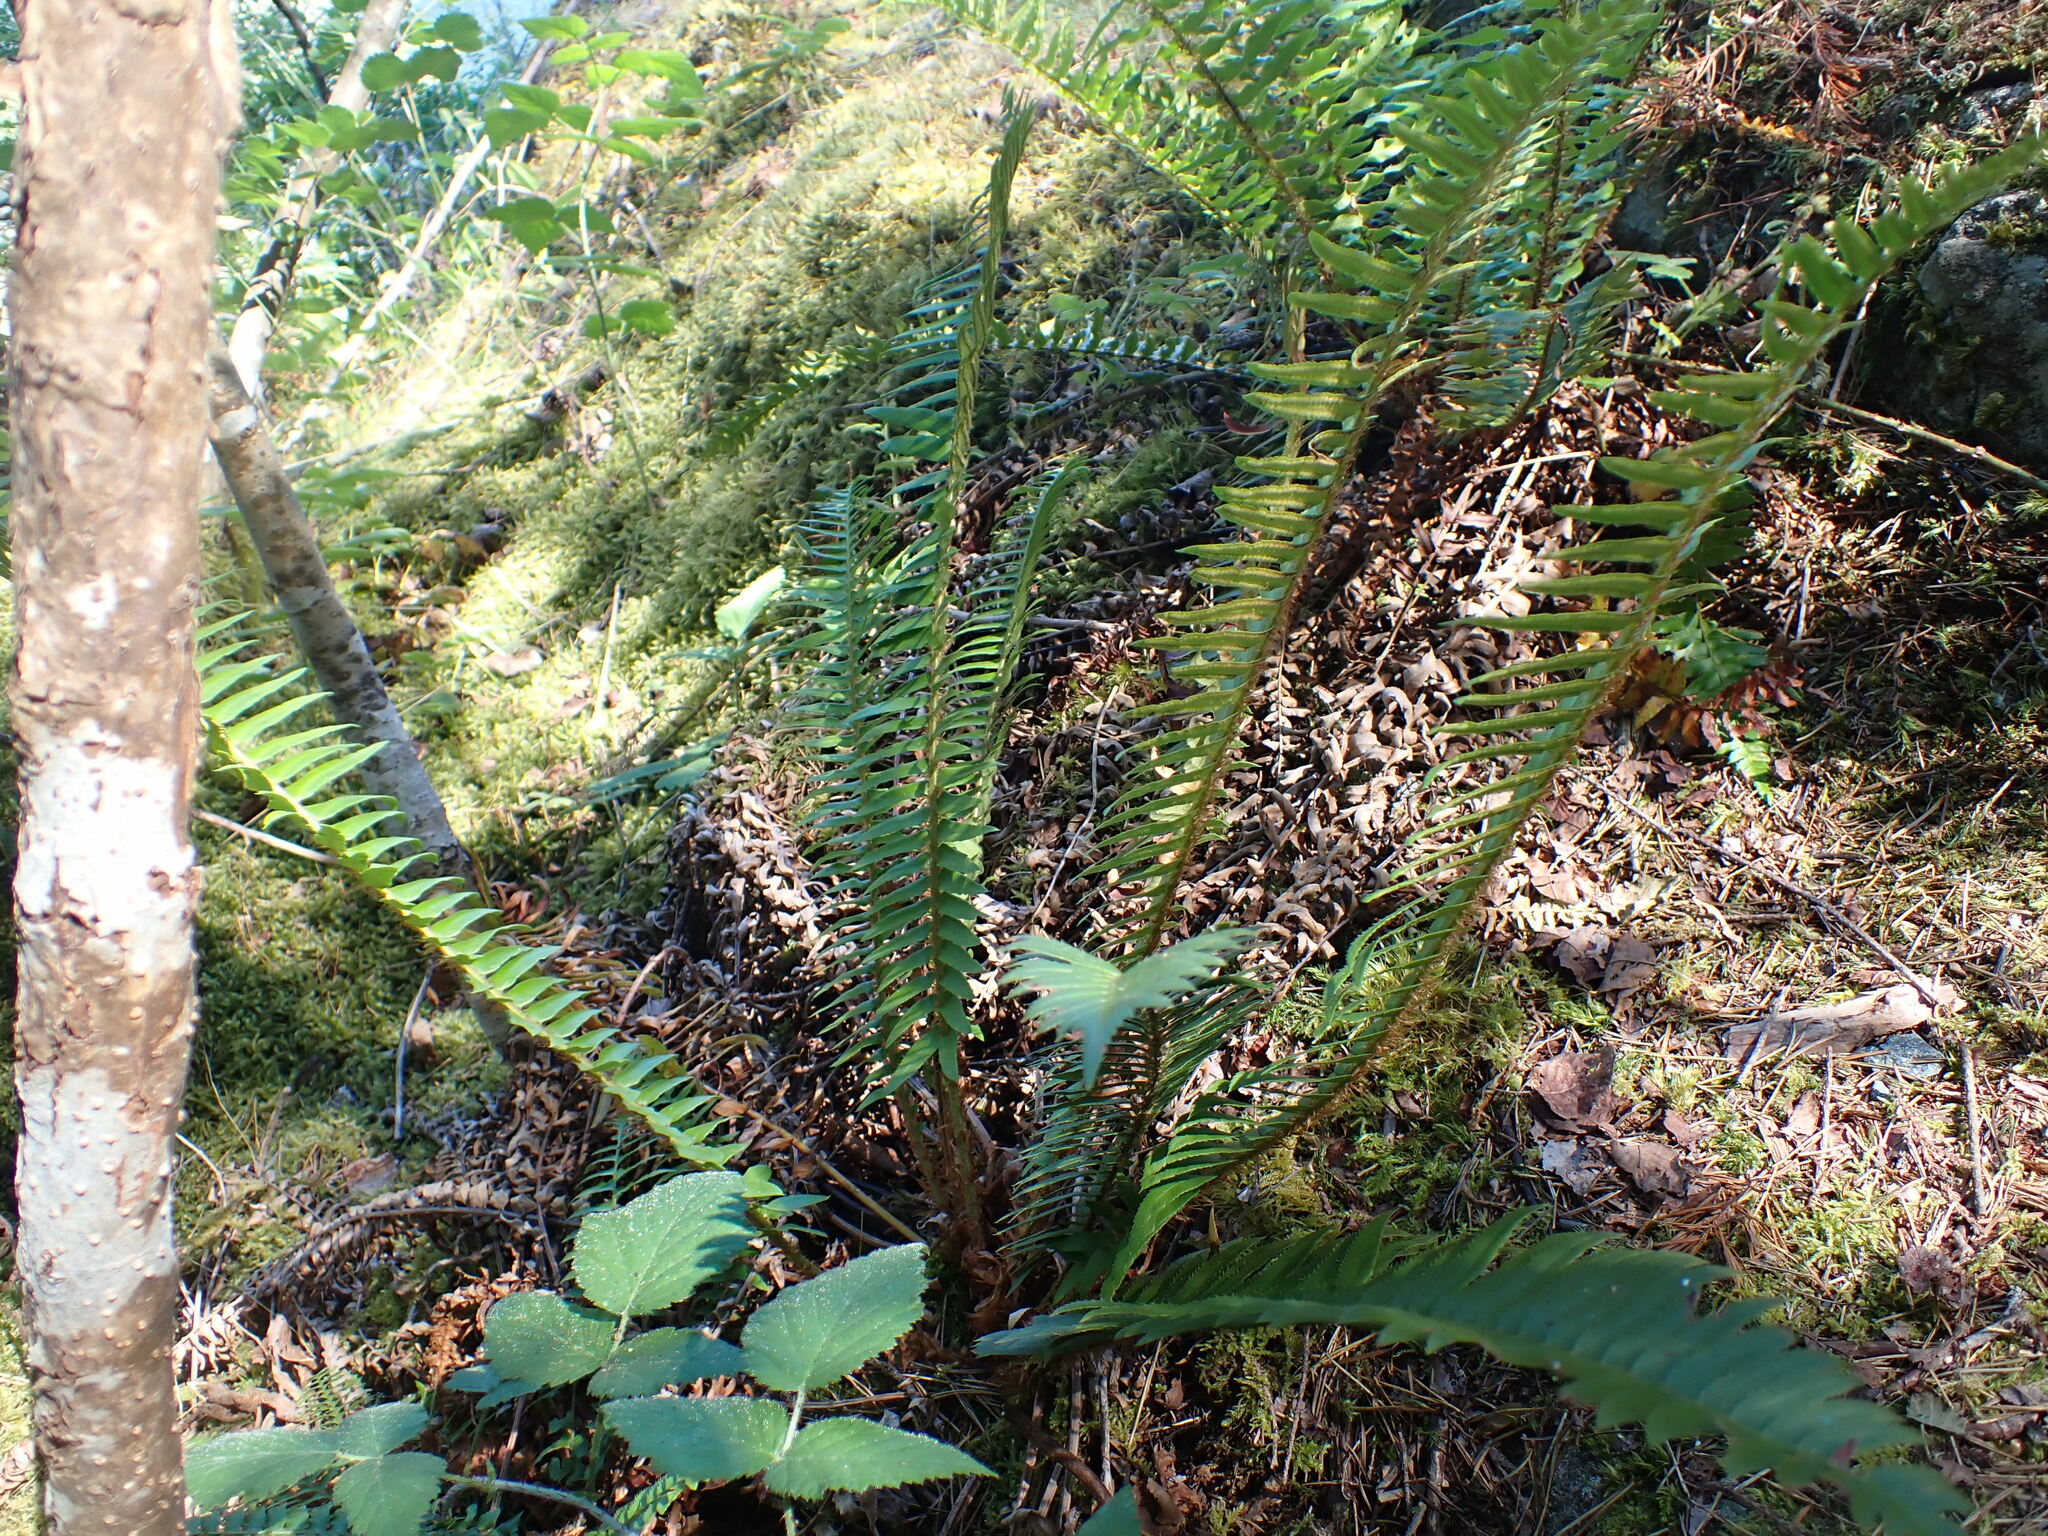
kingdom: Plantae
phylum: Tracheophyta
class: Polypodiopsida
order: Polypodiales
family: Dryopteridaceae
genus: Polystichum
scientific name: Polystichum munitum
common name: Western sword-fern
